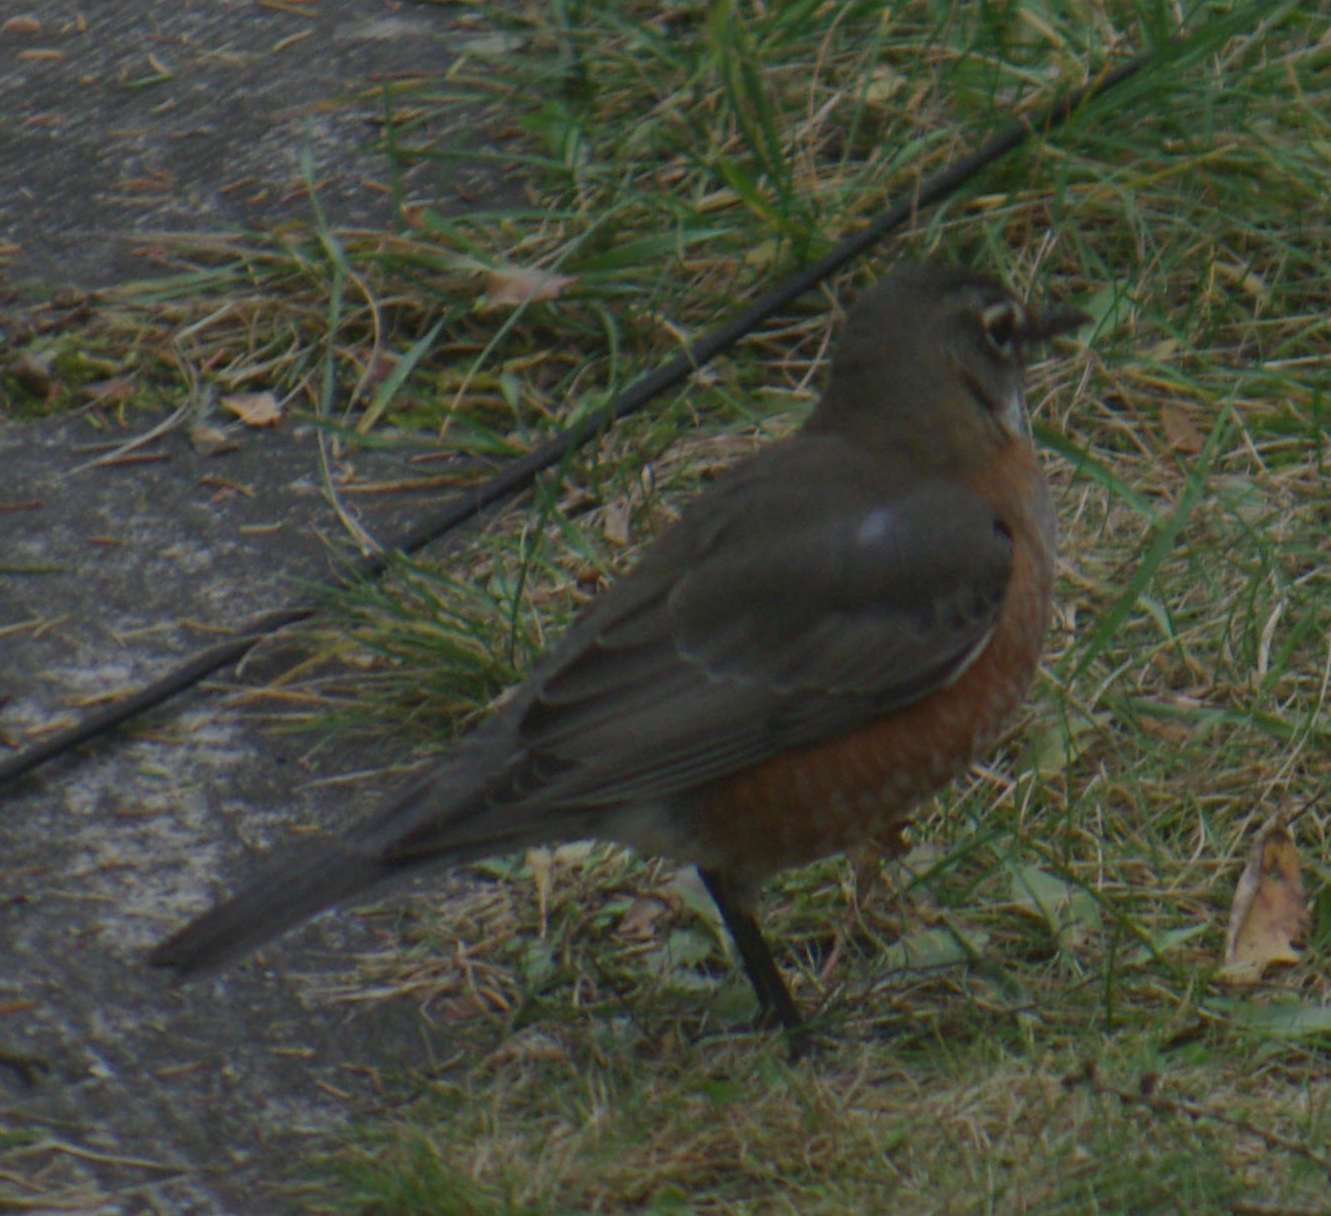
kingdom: Animalia
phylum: Chordata
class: Aves
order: Passeriformes
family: Turdidae
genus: Turdus
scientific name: Turdus migratorius
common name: American robin
